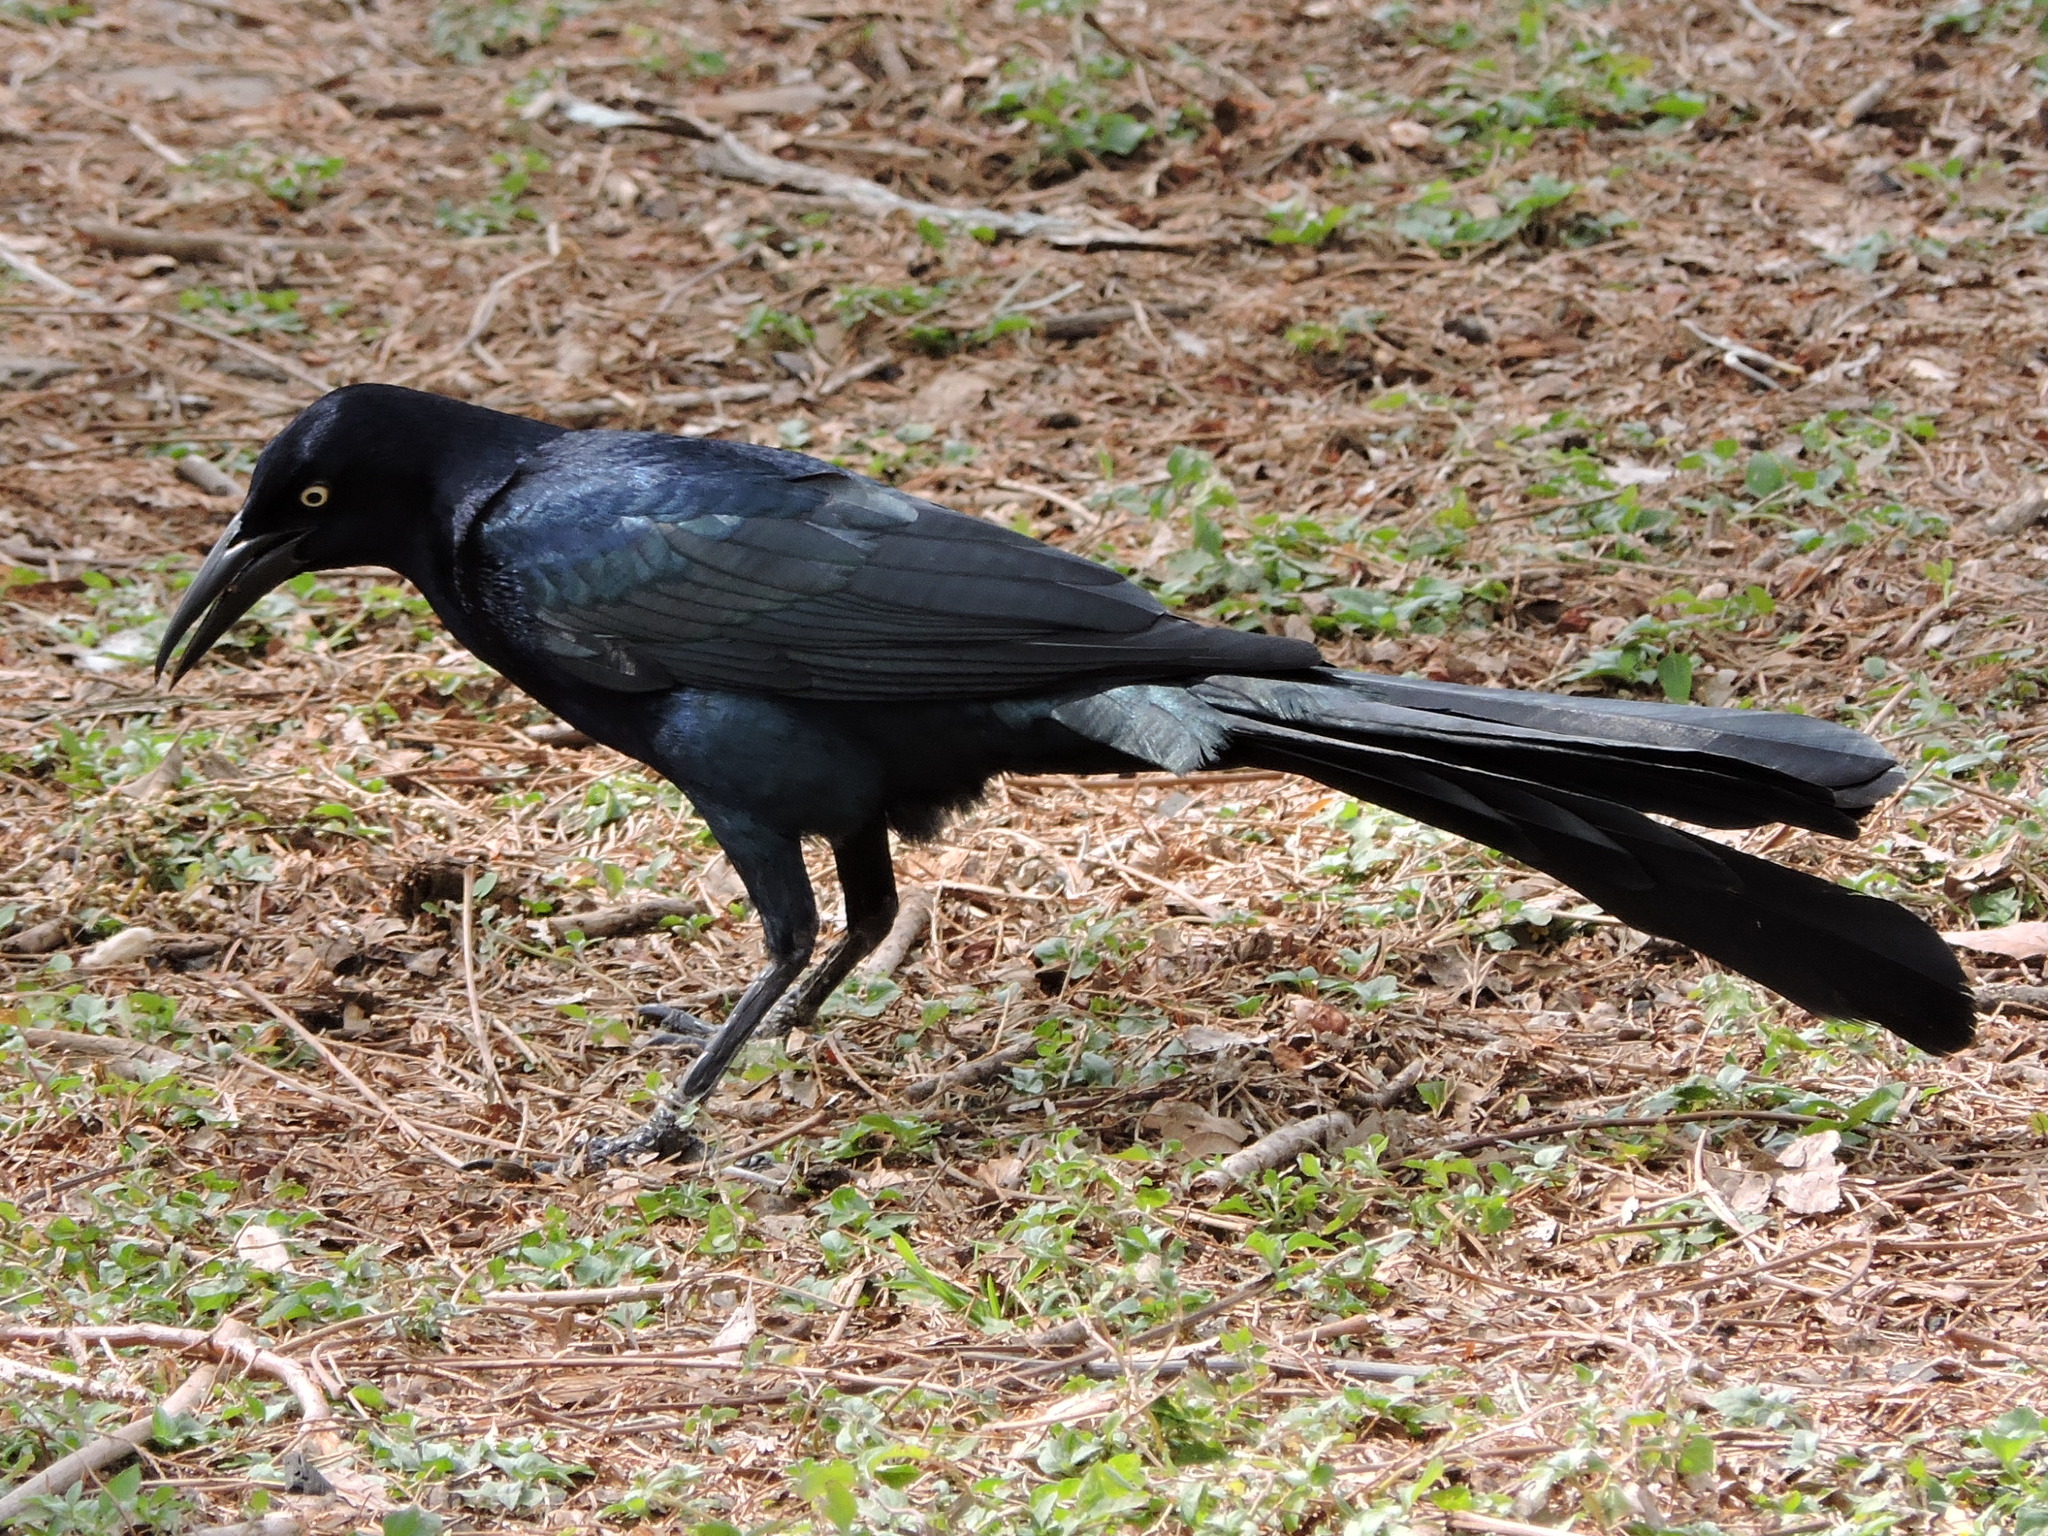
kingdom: Animalia
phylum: Chordata
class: Aves
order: Passeriformes
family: Icteridae
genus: Quiscalus
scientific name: Quiscalus mexicanus
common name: Great-tailed grackle
